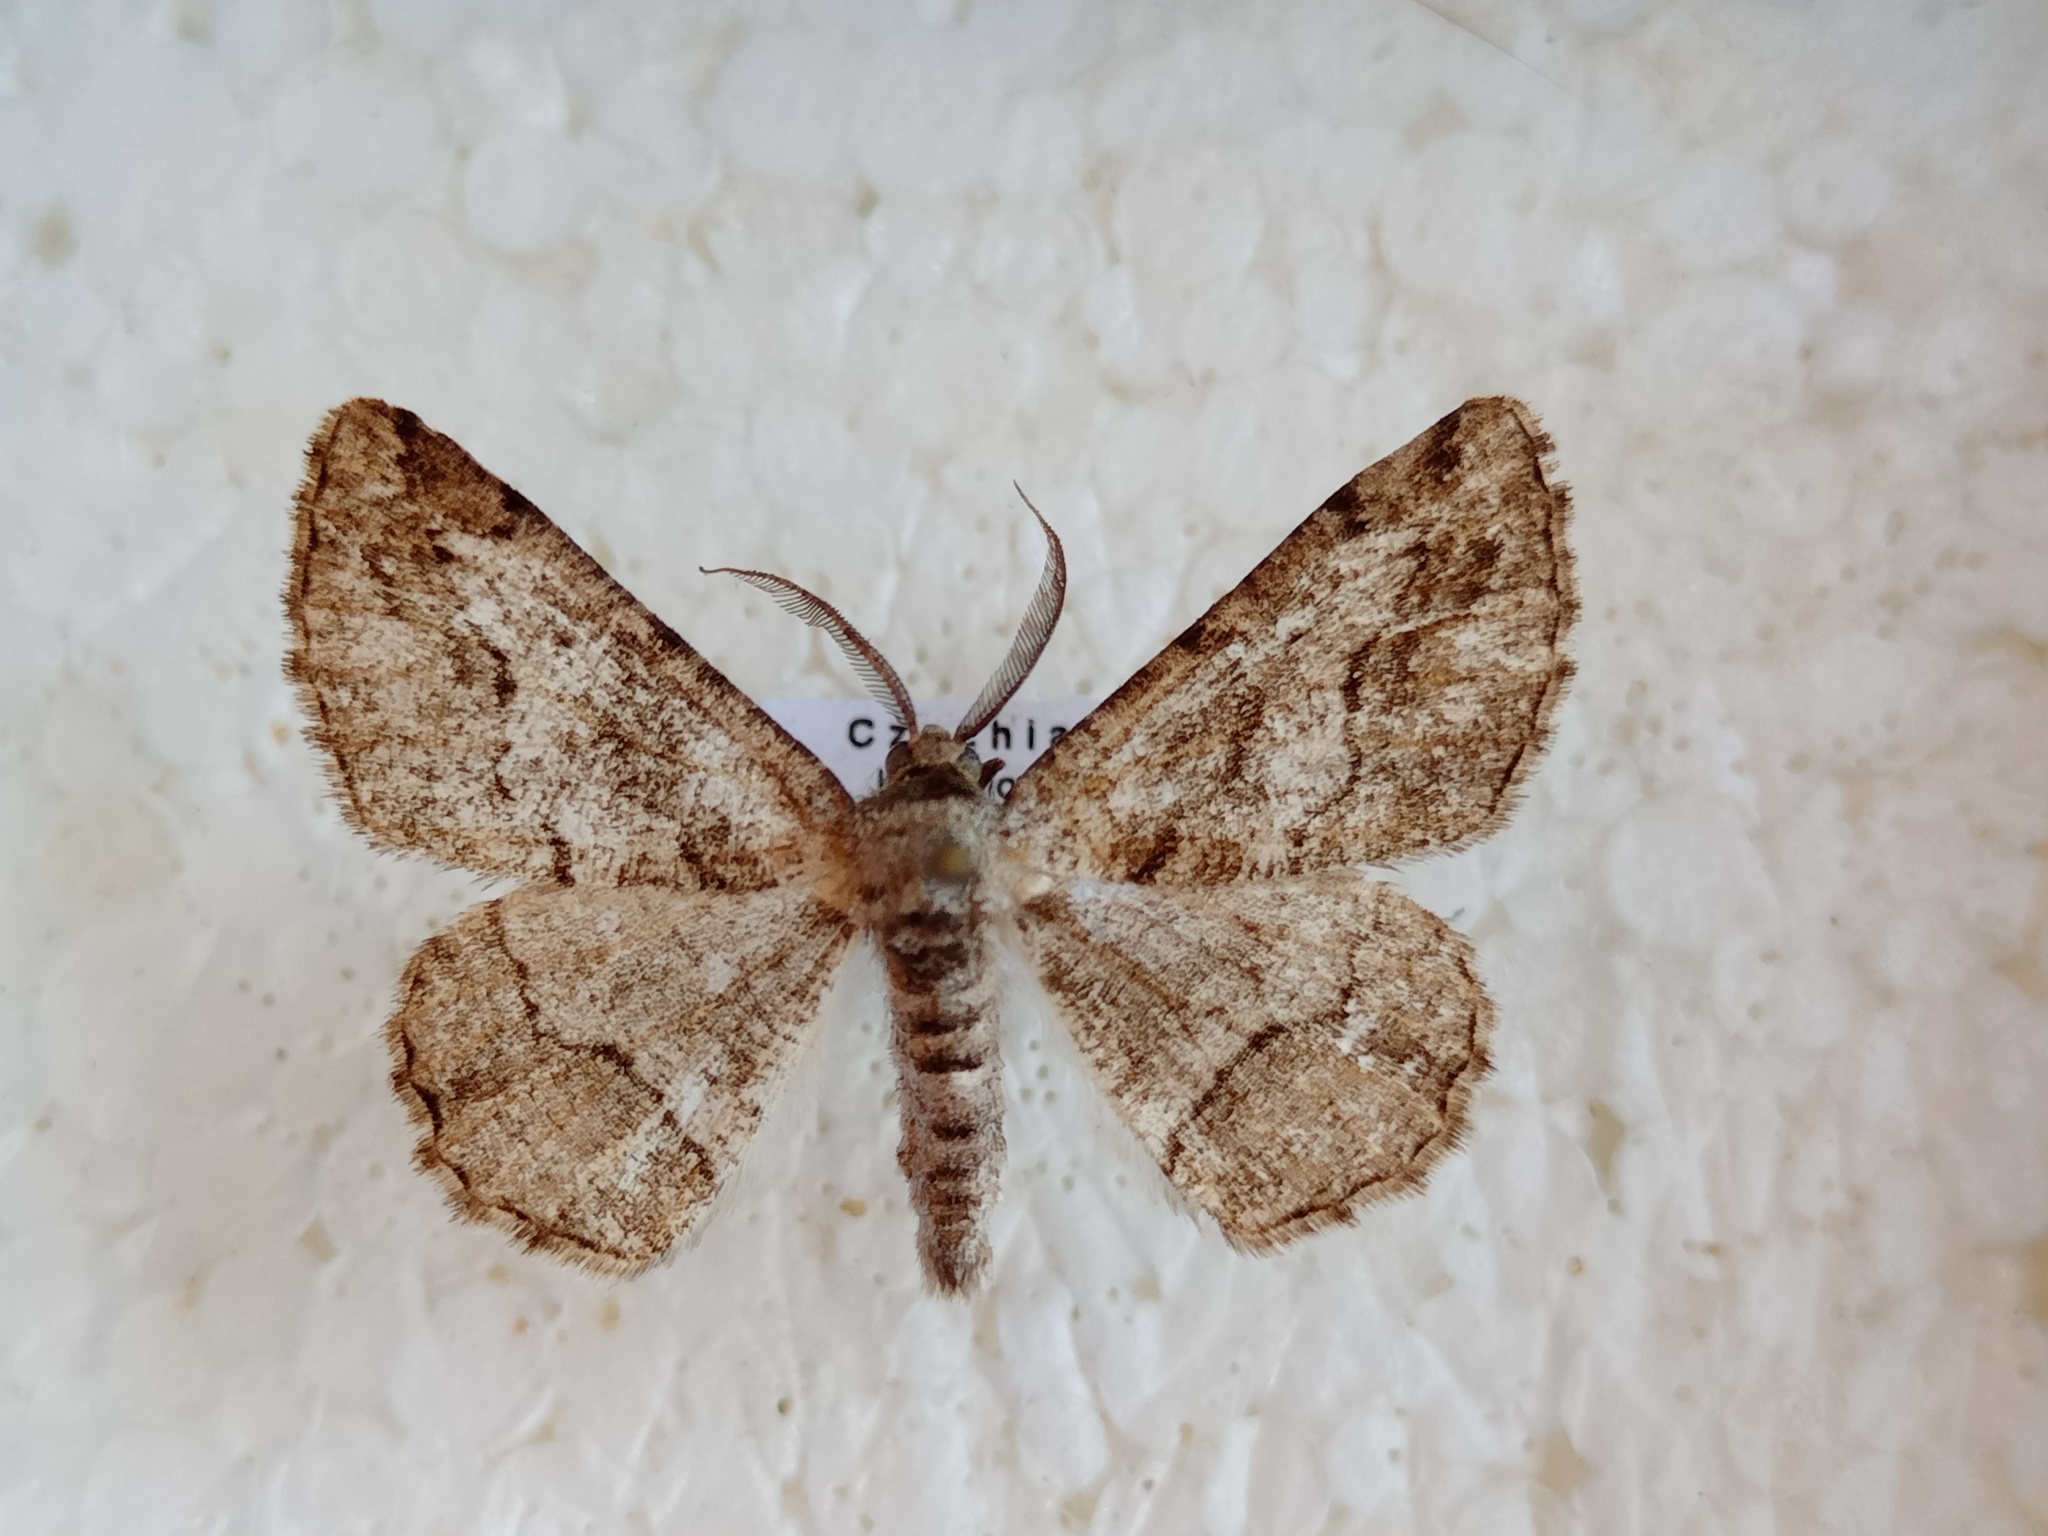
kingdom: Animalia
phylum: Arthropoda
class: Insecta
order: Lepidoptera
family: Geometridae
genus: Synopsia
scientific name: Synopsia sociaria
